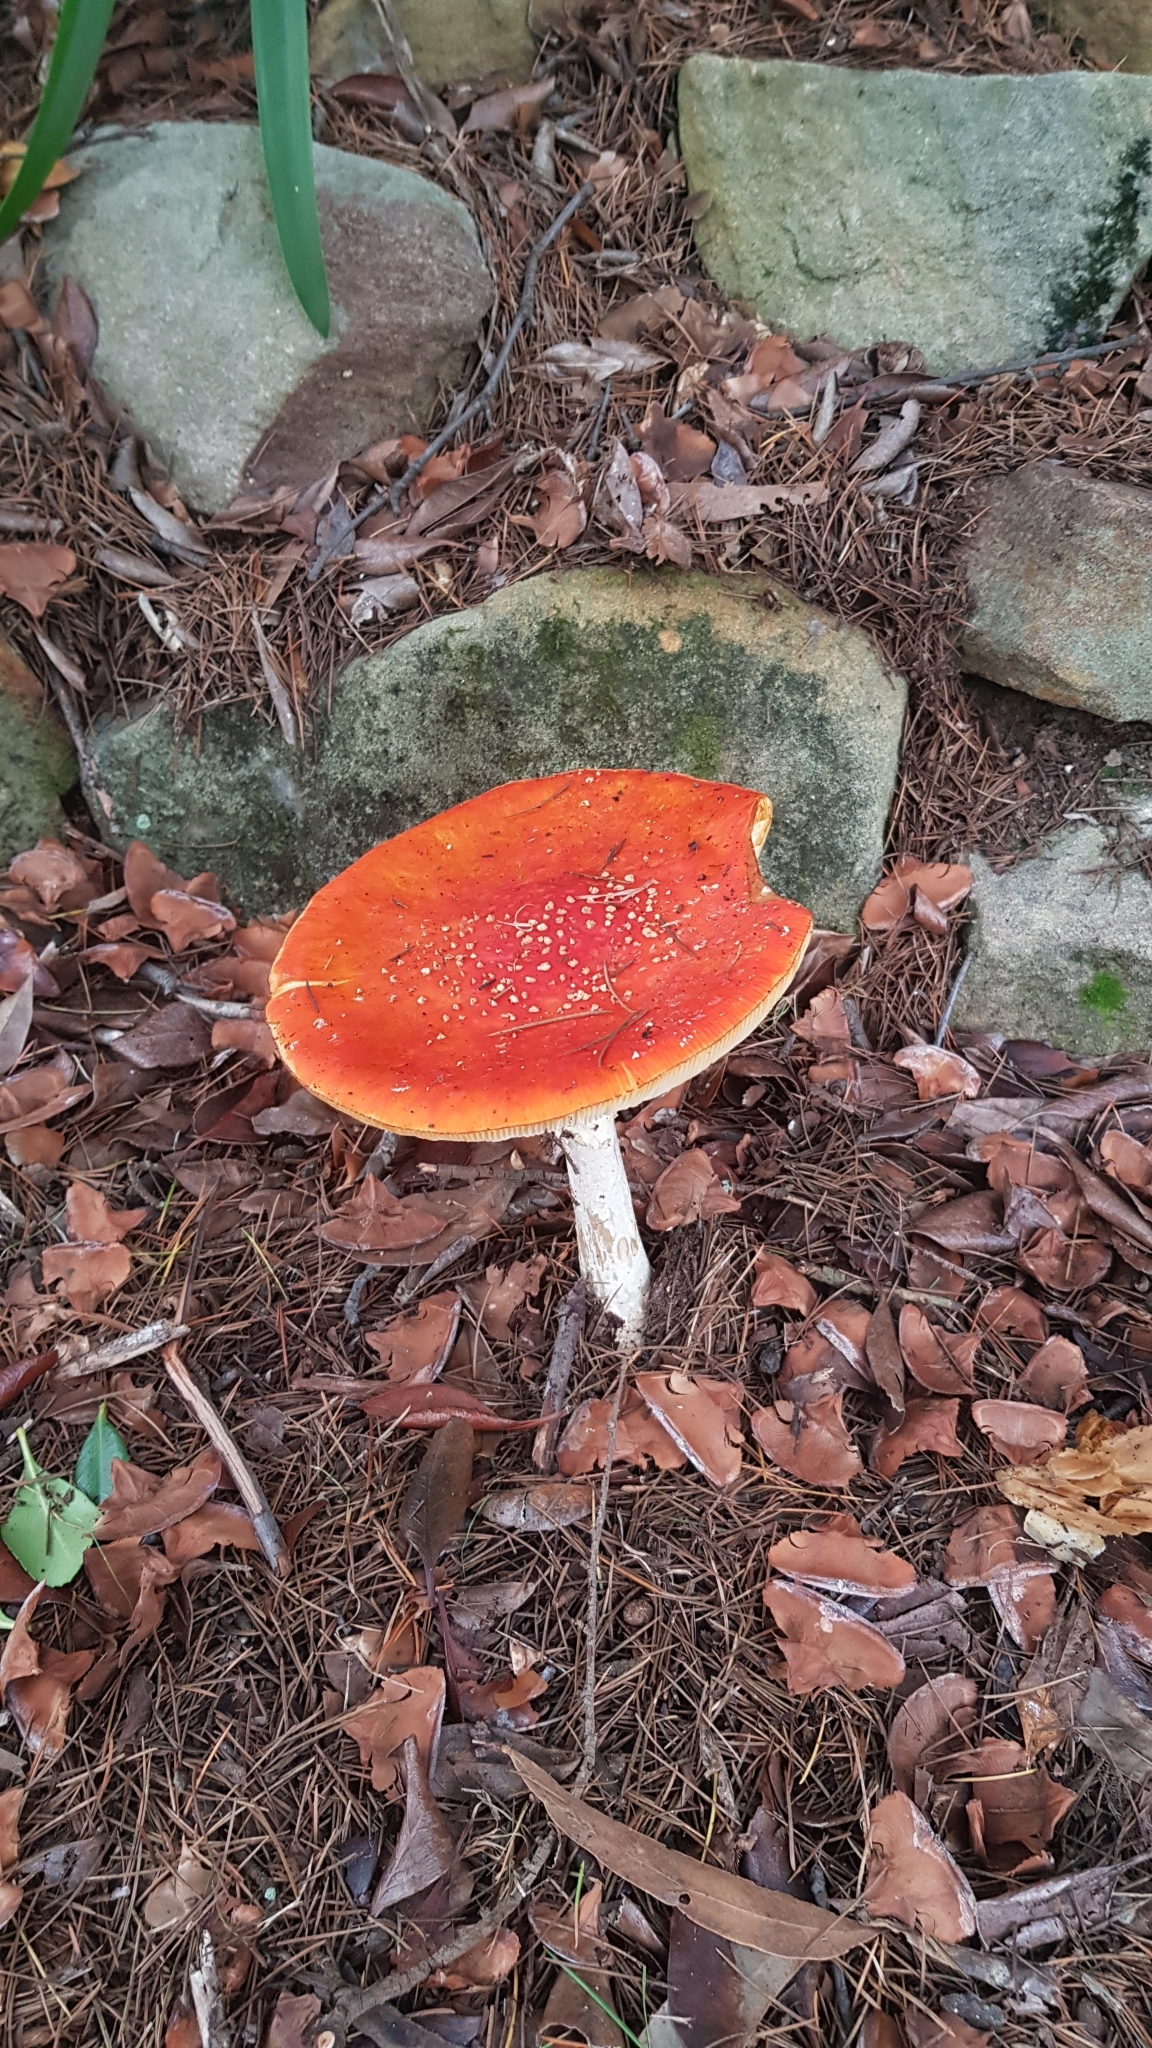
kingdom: Fungi
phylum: Basidiomycota
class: Agaricomycetes
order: Agaricales
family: Amanitaceae
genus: Amanita
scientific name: Amanita muscaria
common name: Fly agaric
